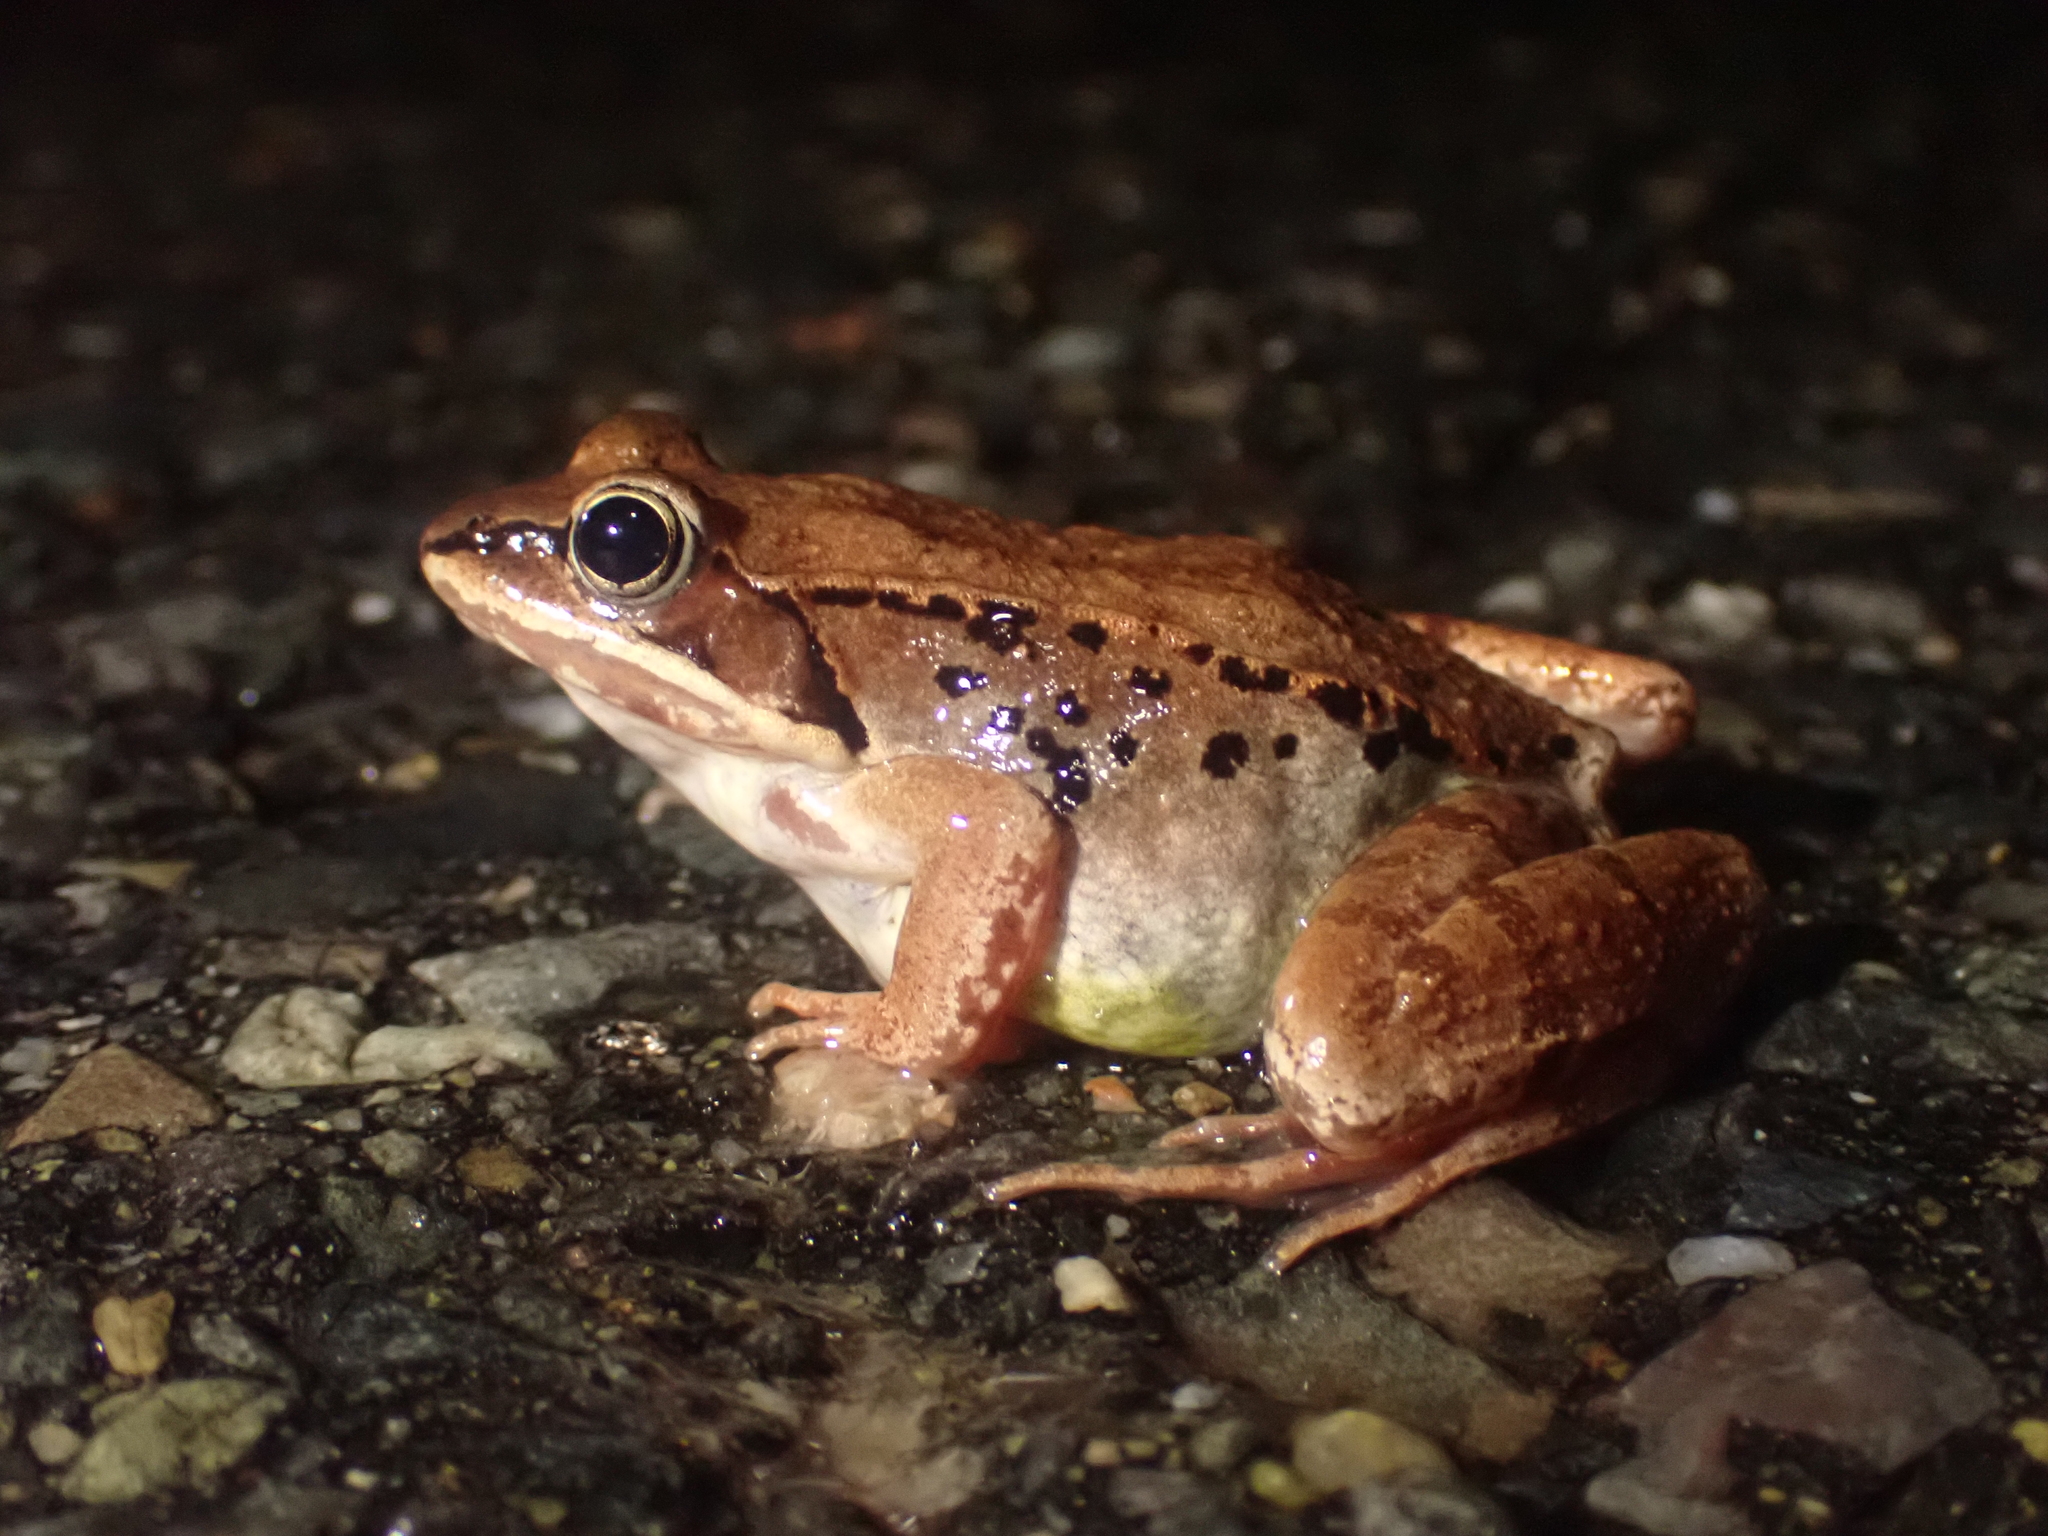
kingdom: Animalia
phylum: Chordata
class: Amphibia
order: Anura
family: Ranidae
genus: Lithobates
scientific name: Lithobates sylvaticus
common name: Wood frog
